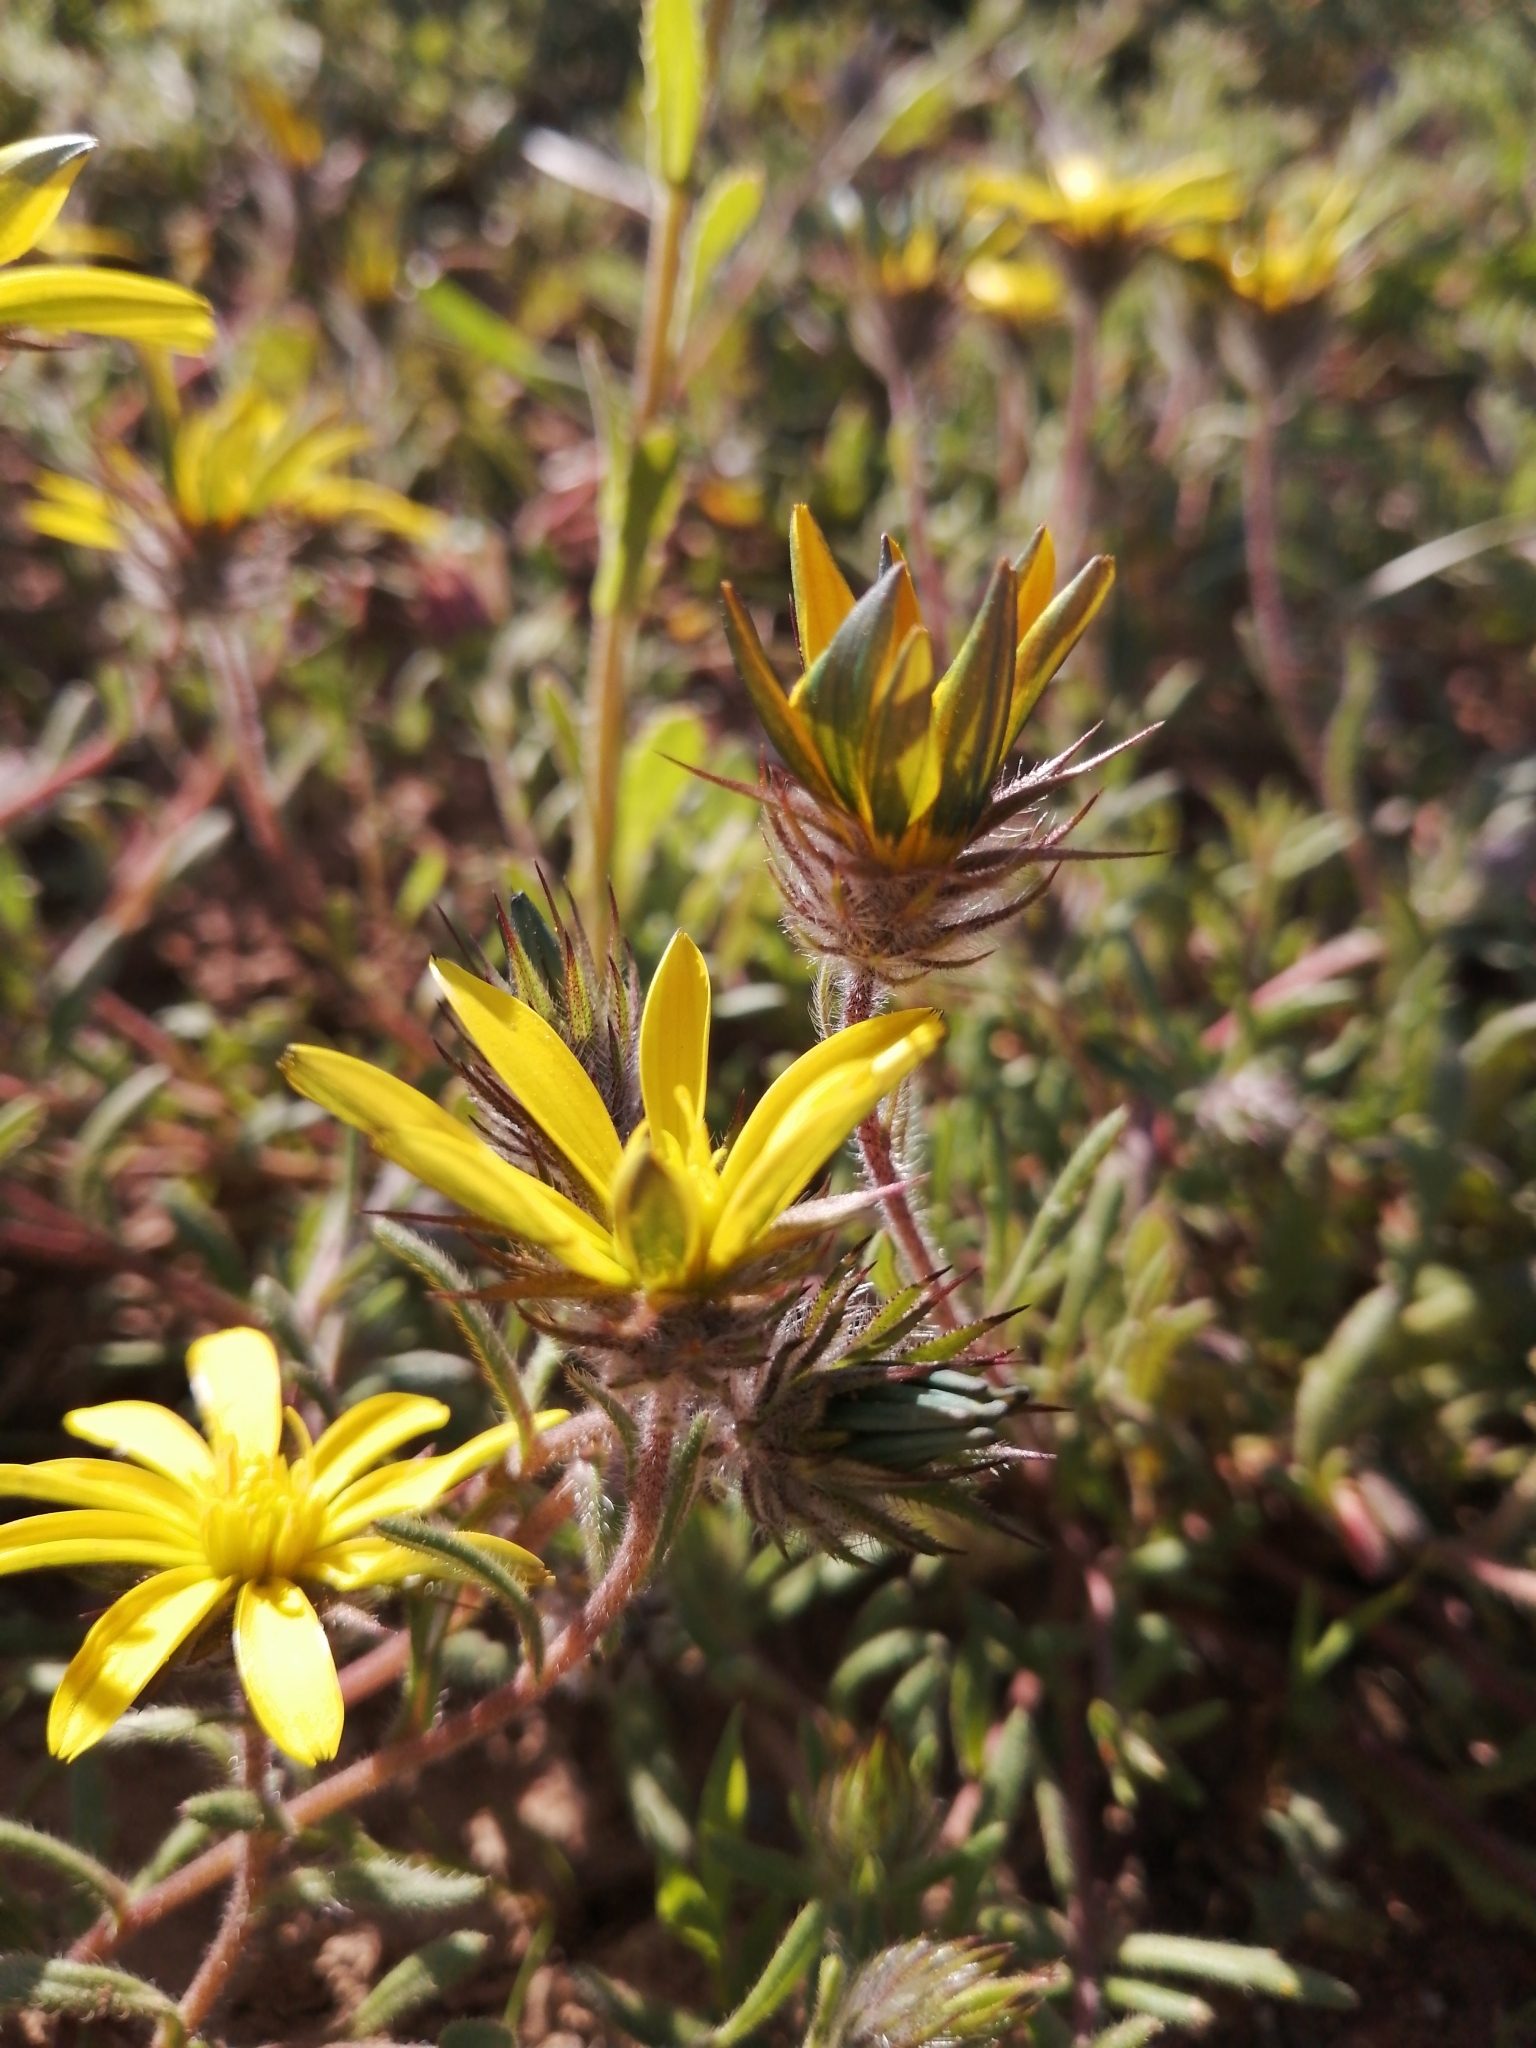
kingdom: Plantae
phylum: Tracheophyta
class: Magnoliopsida
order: Asterales
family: Asteraceae
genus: Gorteria
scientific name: Gorteria piloselloides
